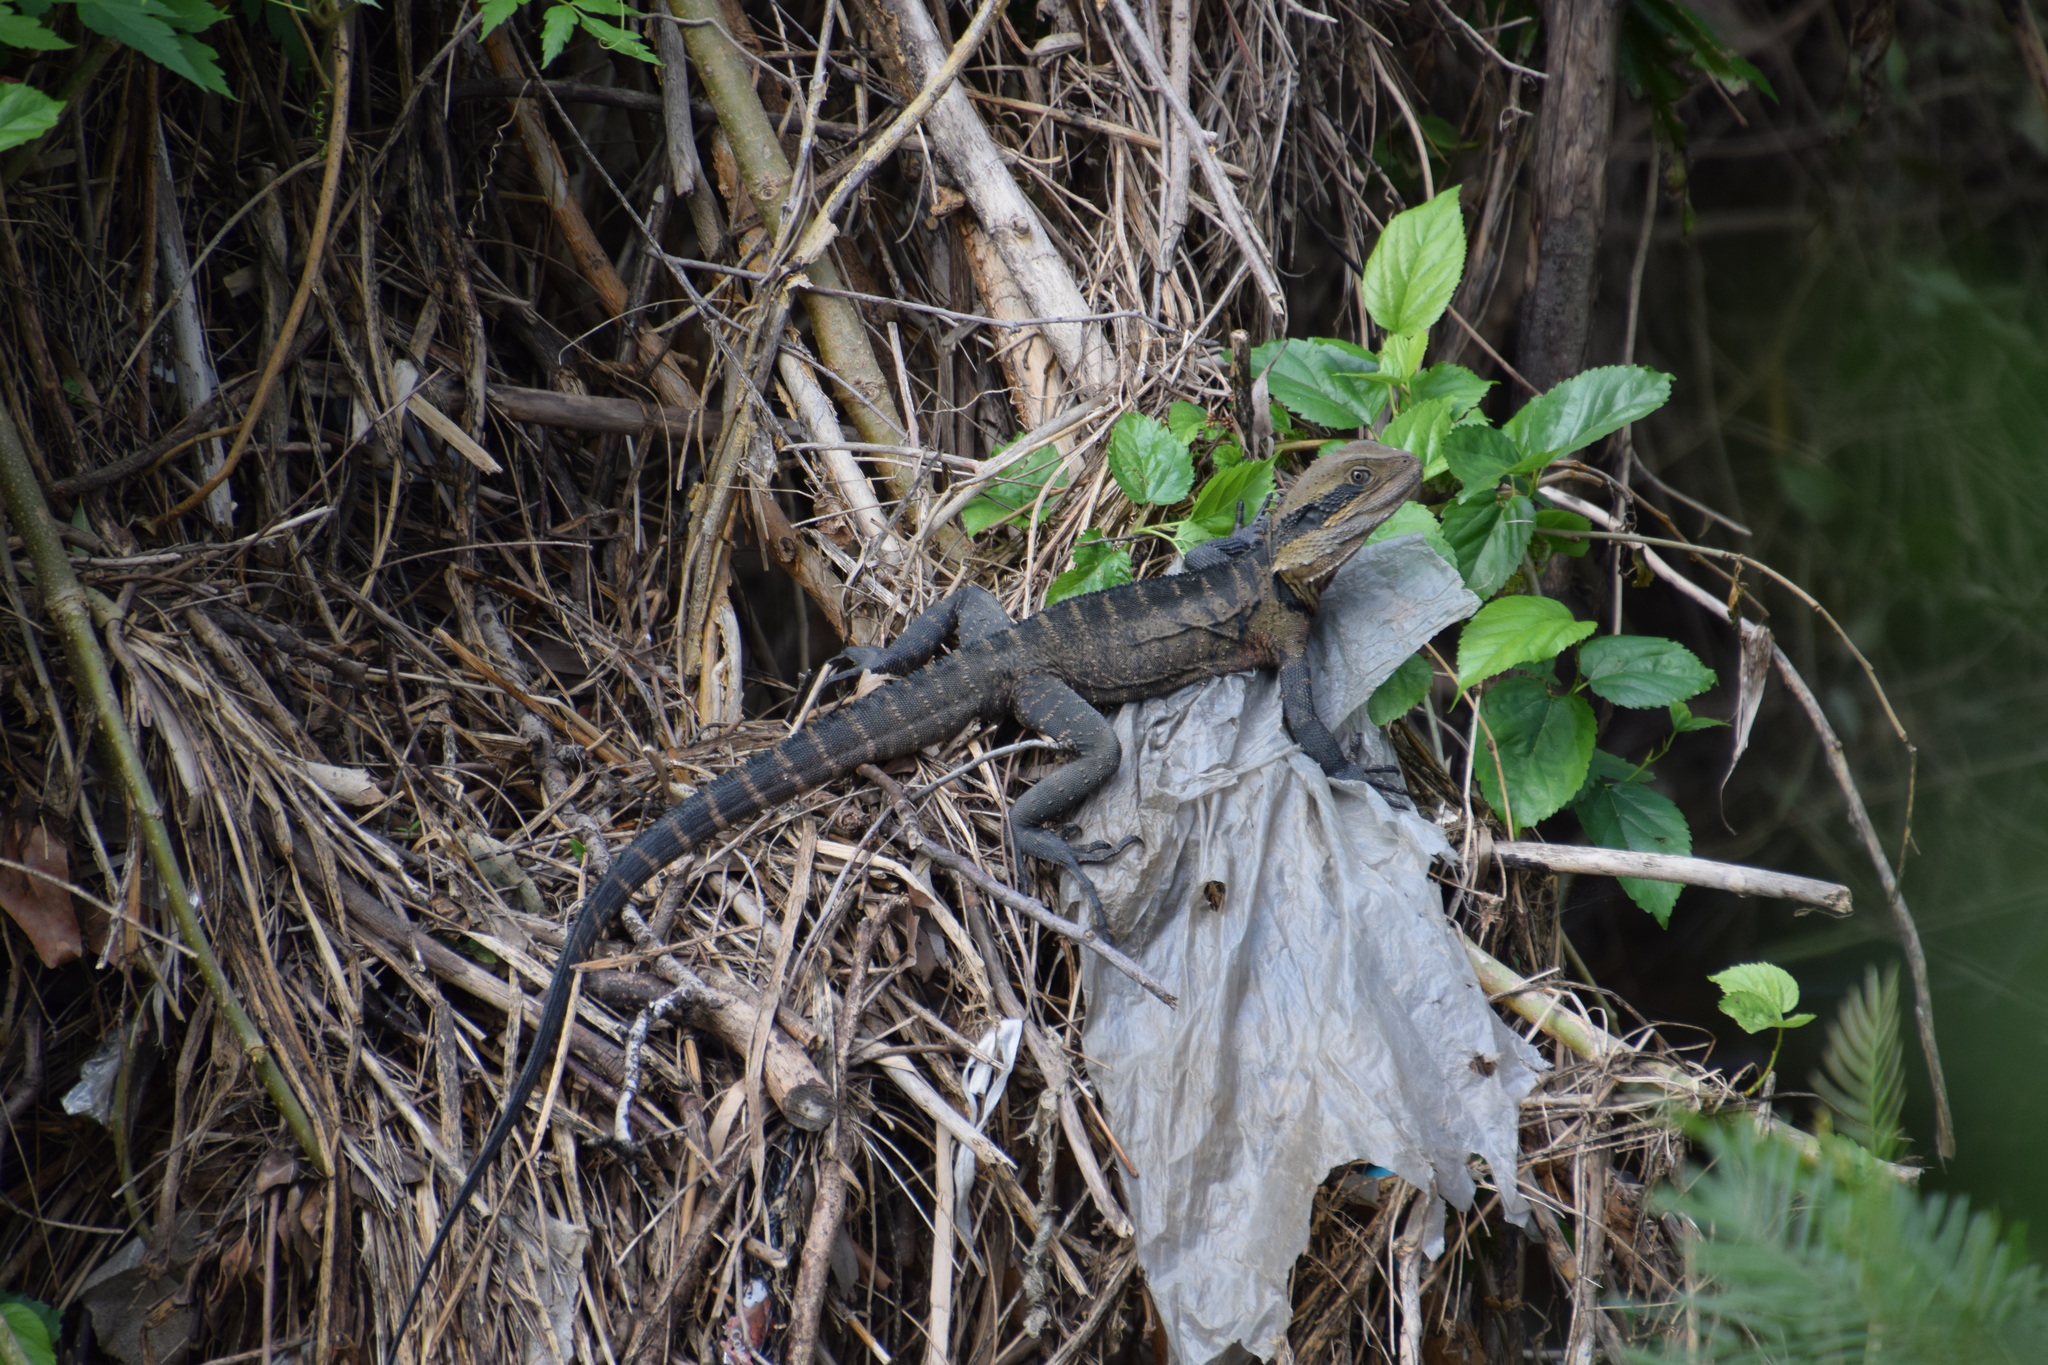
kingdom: Animalia
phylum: Chordata
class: Squamata
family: Agamidae
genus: Intellagama
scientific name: Intellagama lesueurii
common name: Eastern water dragon
